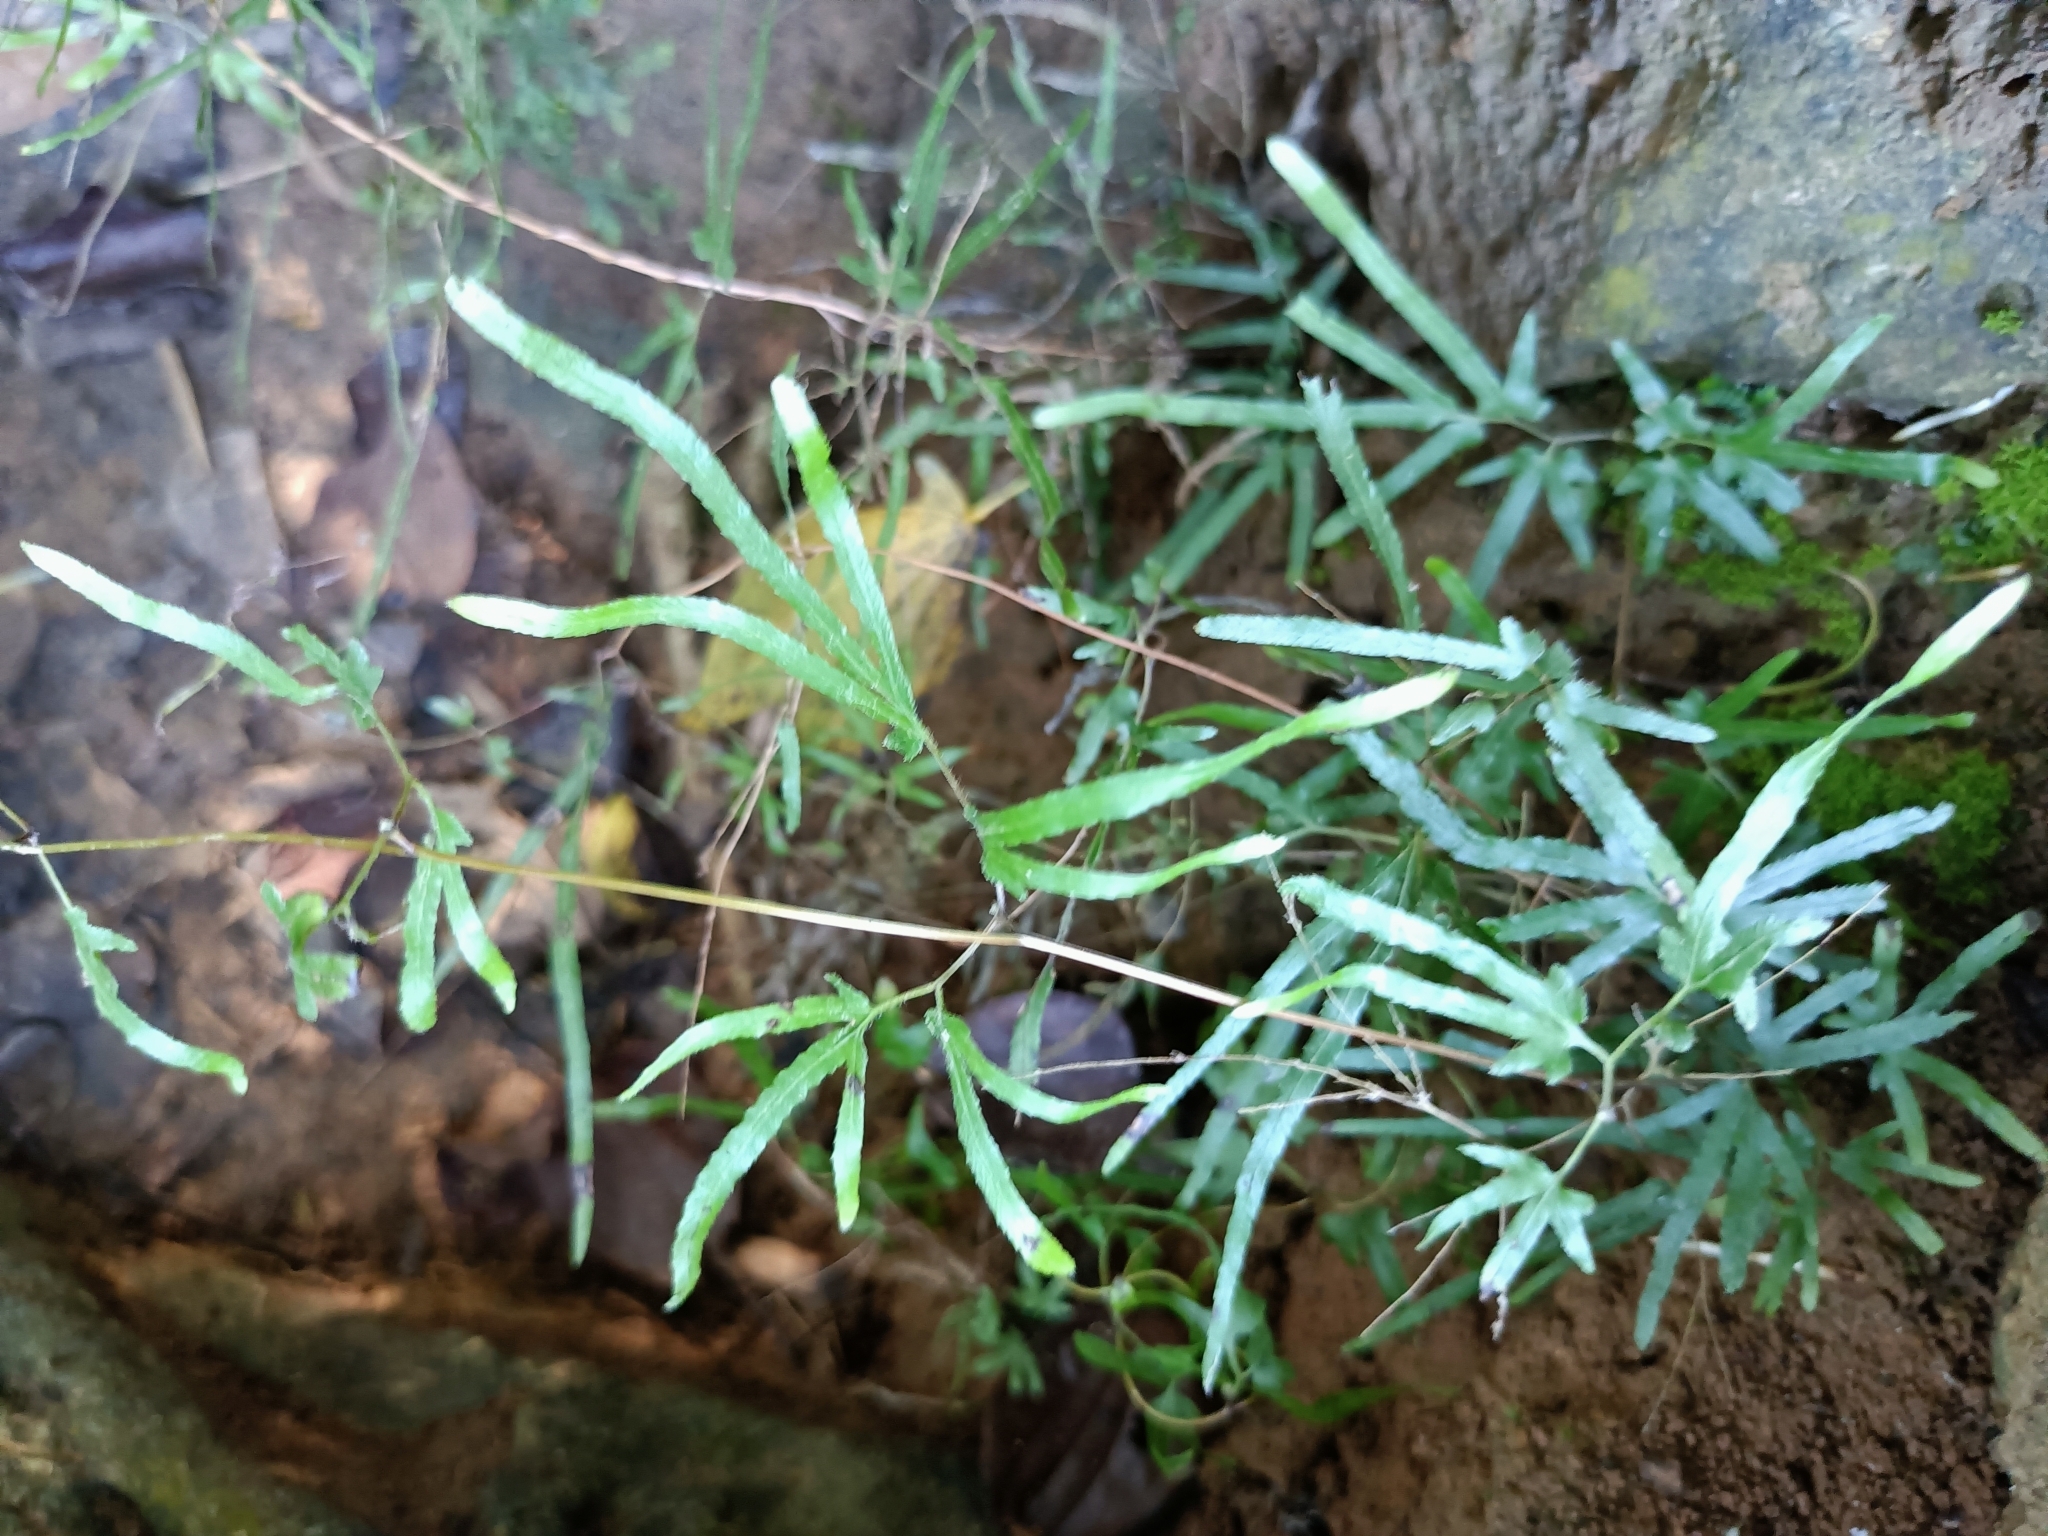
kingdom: Plantae
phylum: Tracheophyta
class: Polypodiopsida
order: Schizaeales
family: Lygodiaceae
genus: Lygodium
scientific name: Lygodium japonicum
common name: Japanese climbing fern
